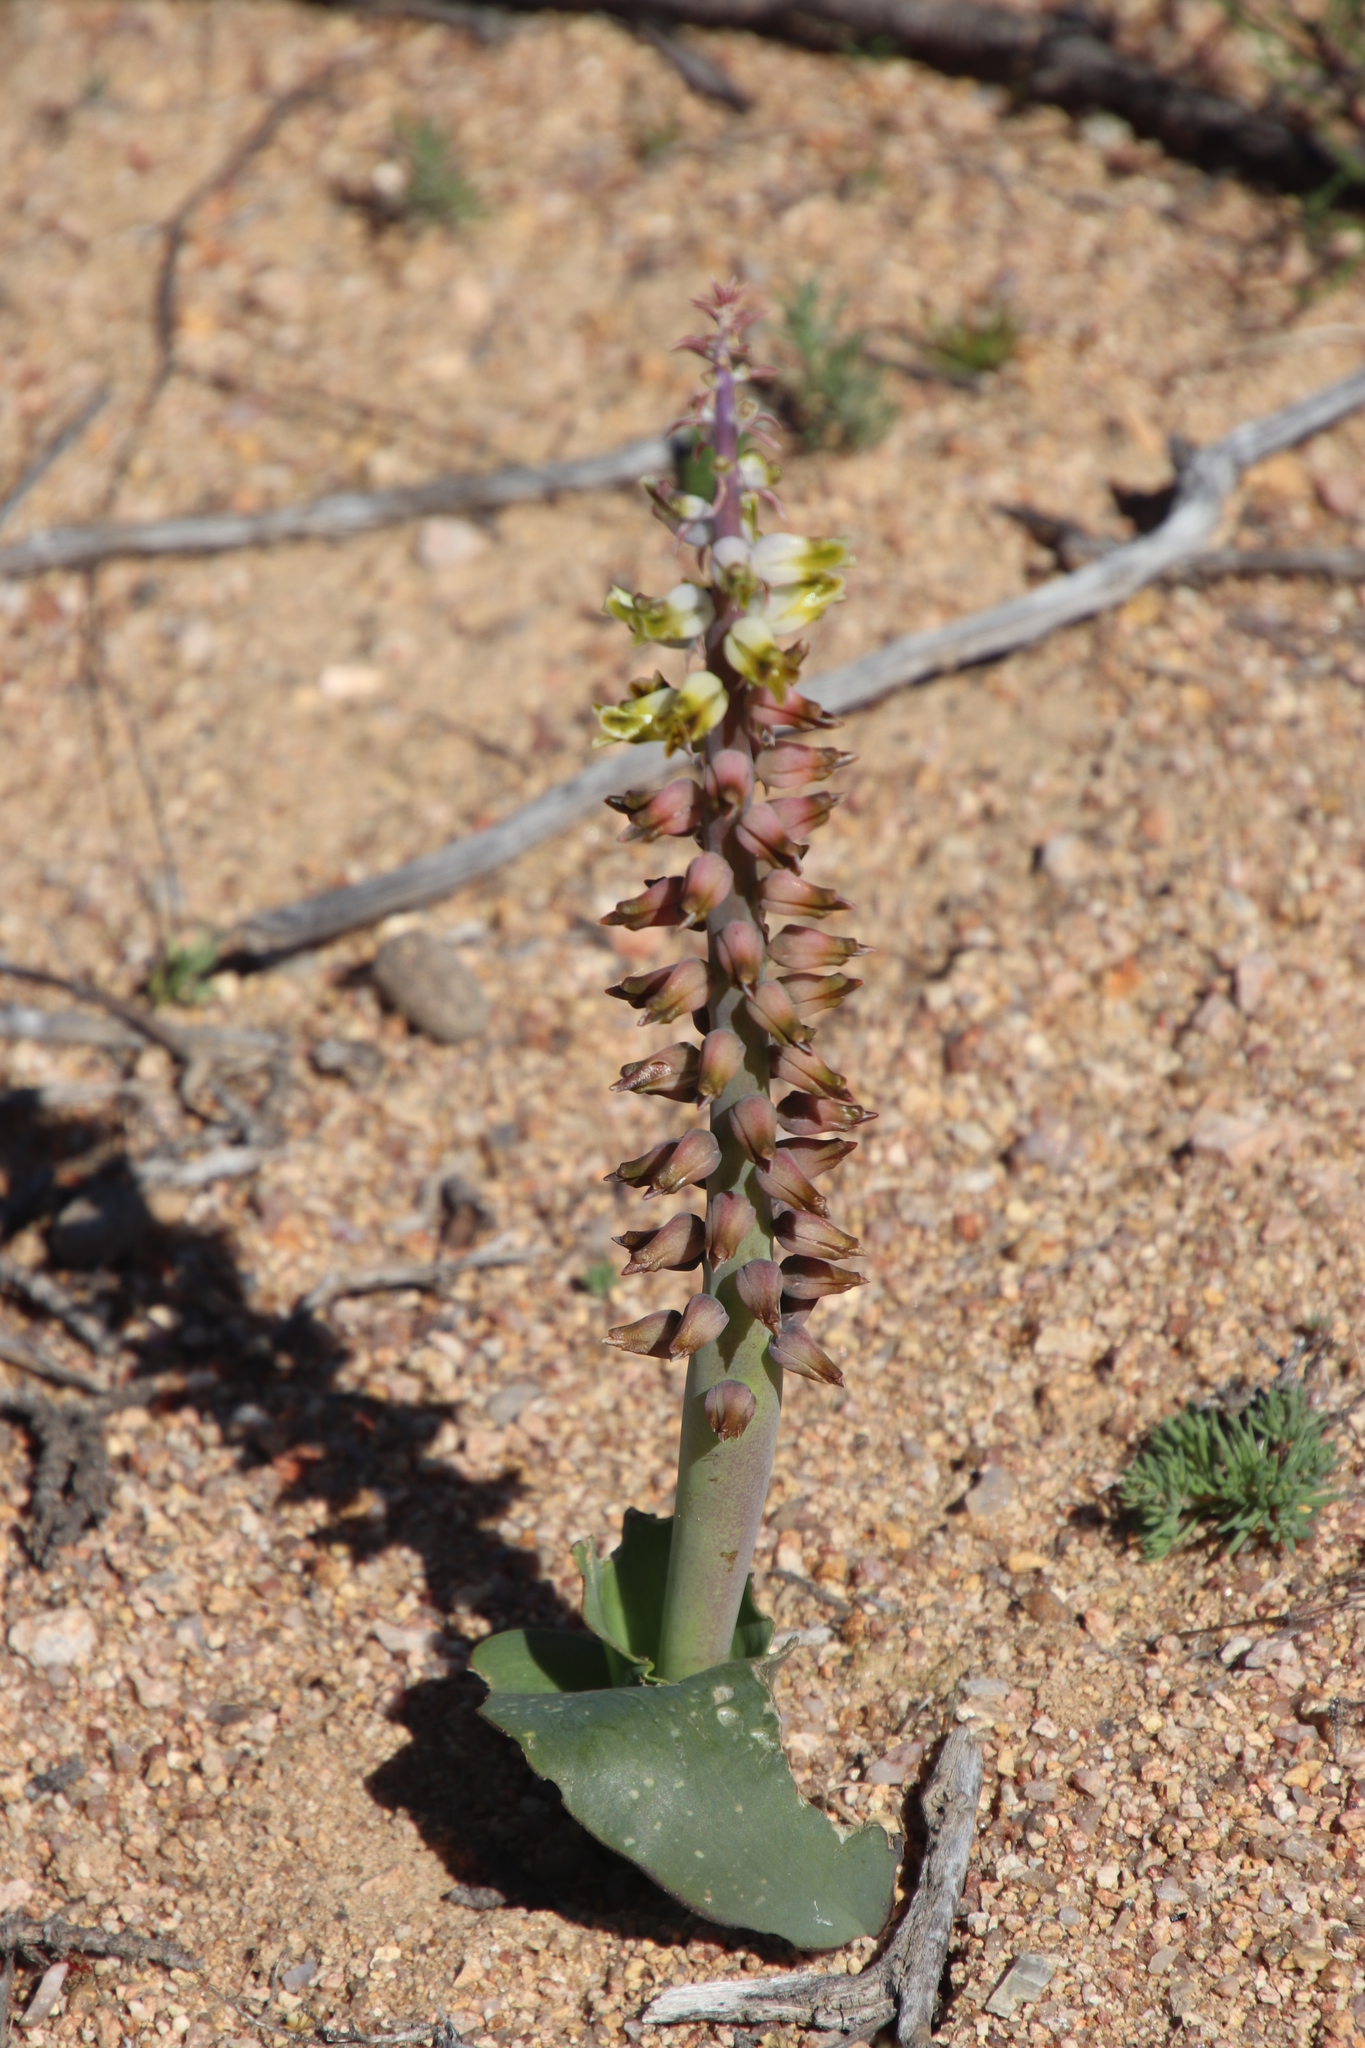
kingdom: Plantae
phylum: Tracheophyta
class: Liliopsida
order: Asparagales
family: Asparagaceae
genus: Lachenalia
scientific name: Lachenalia mutabilis
